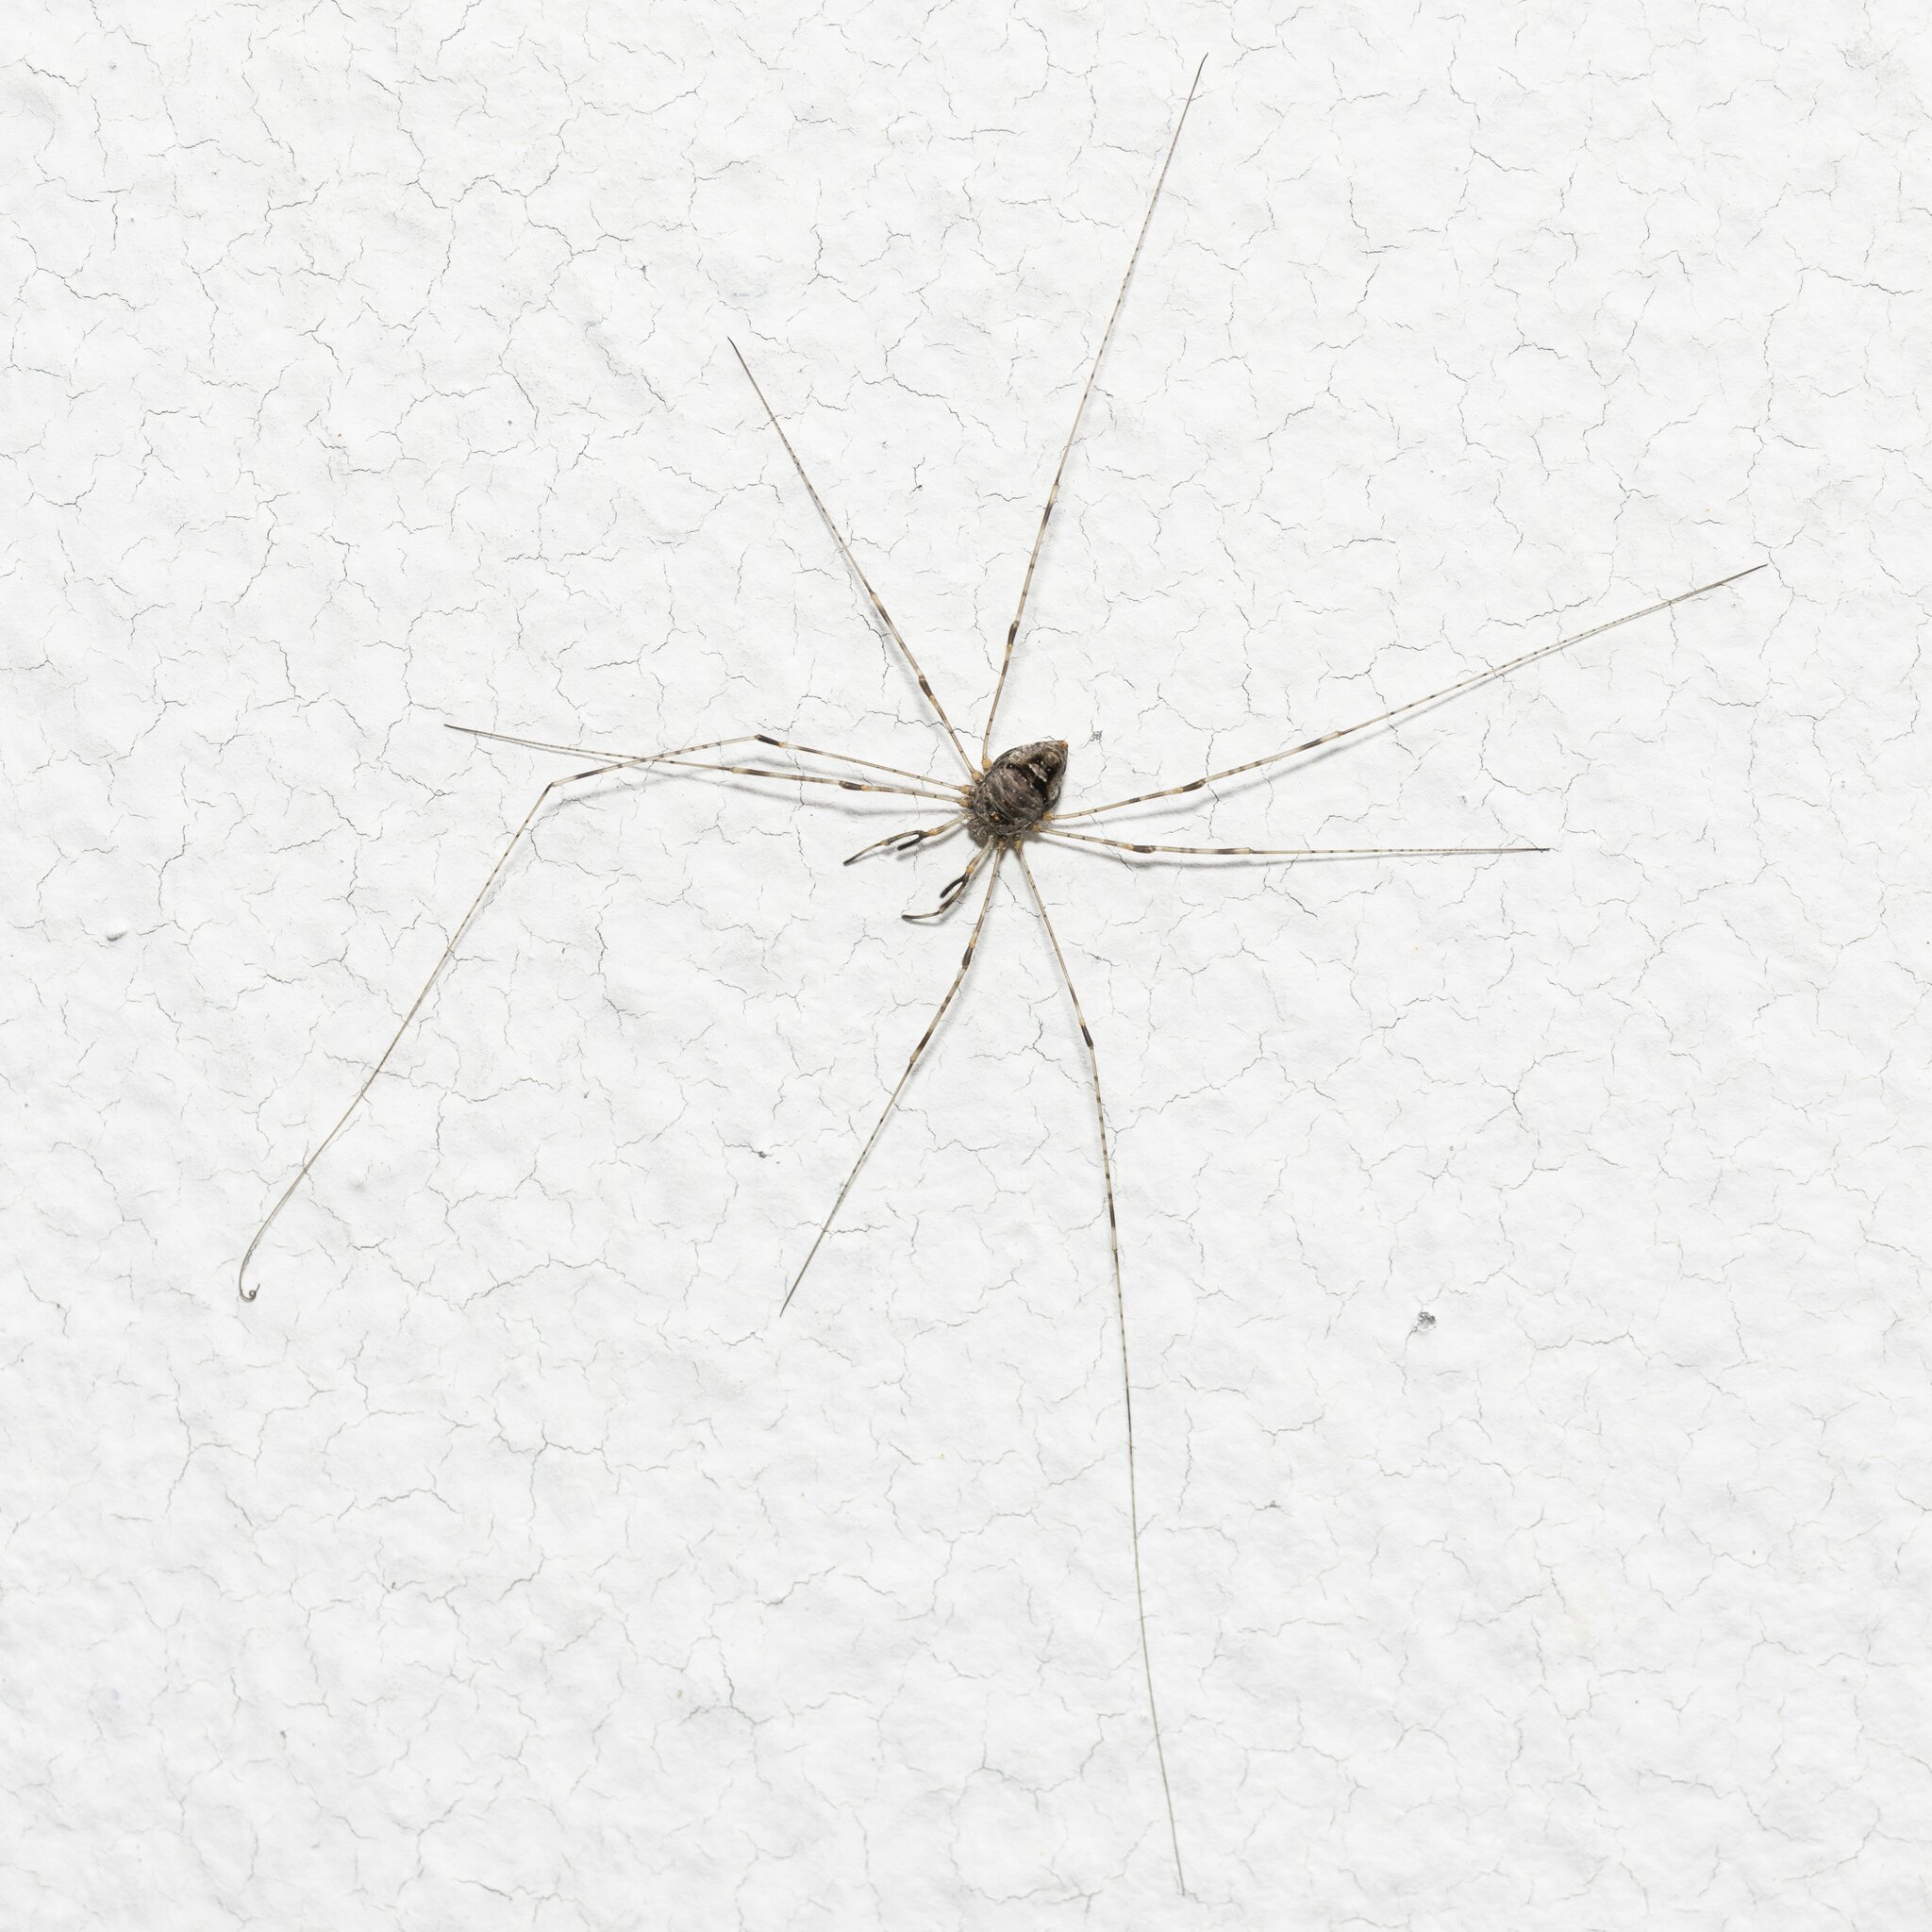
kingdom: Animalia
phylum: Arthropoda
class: Arachnida
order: Opiliones
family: Phalangiidae
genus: Dicranopalpus
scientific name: Dicranopalpus ramosus
